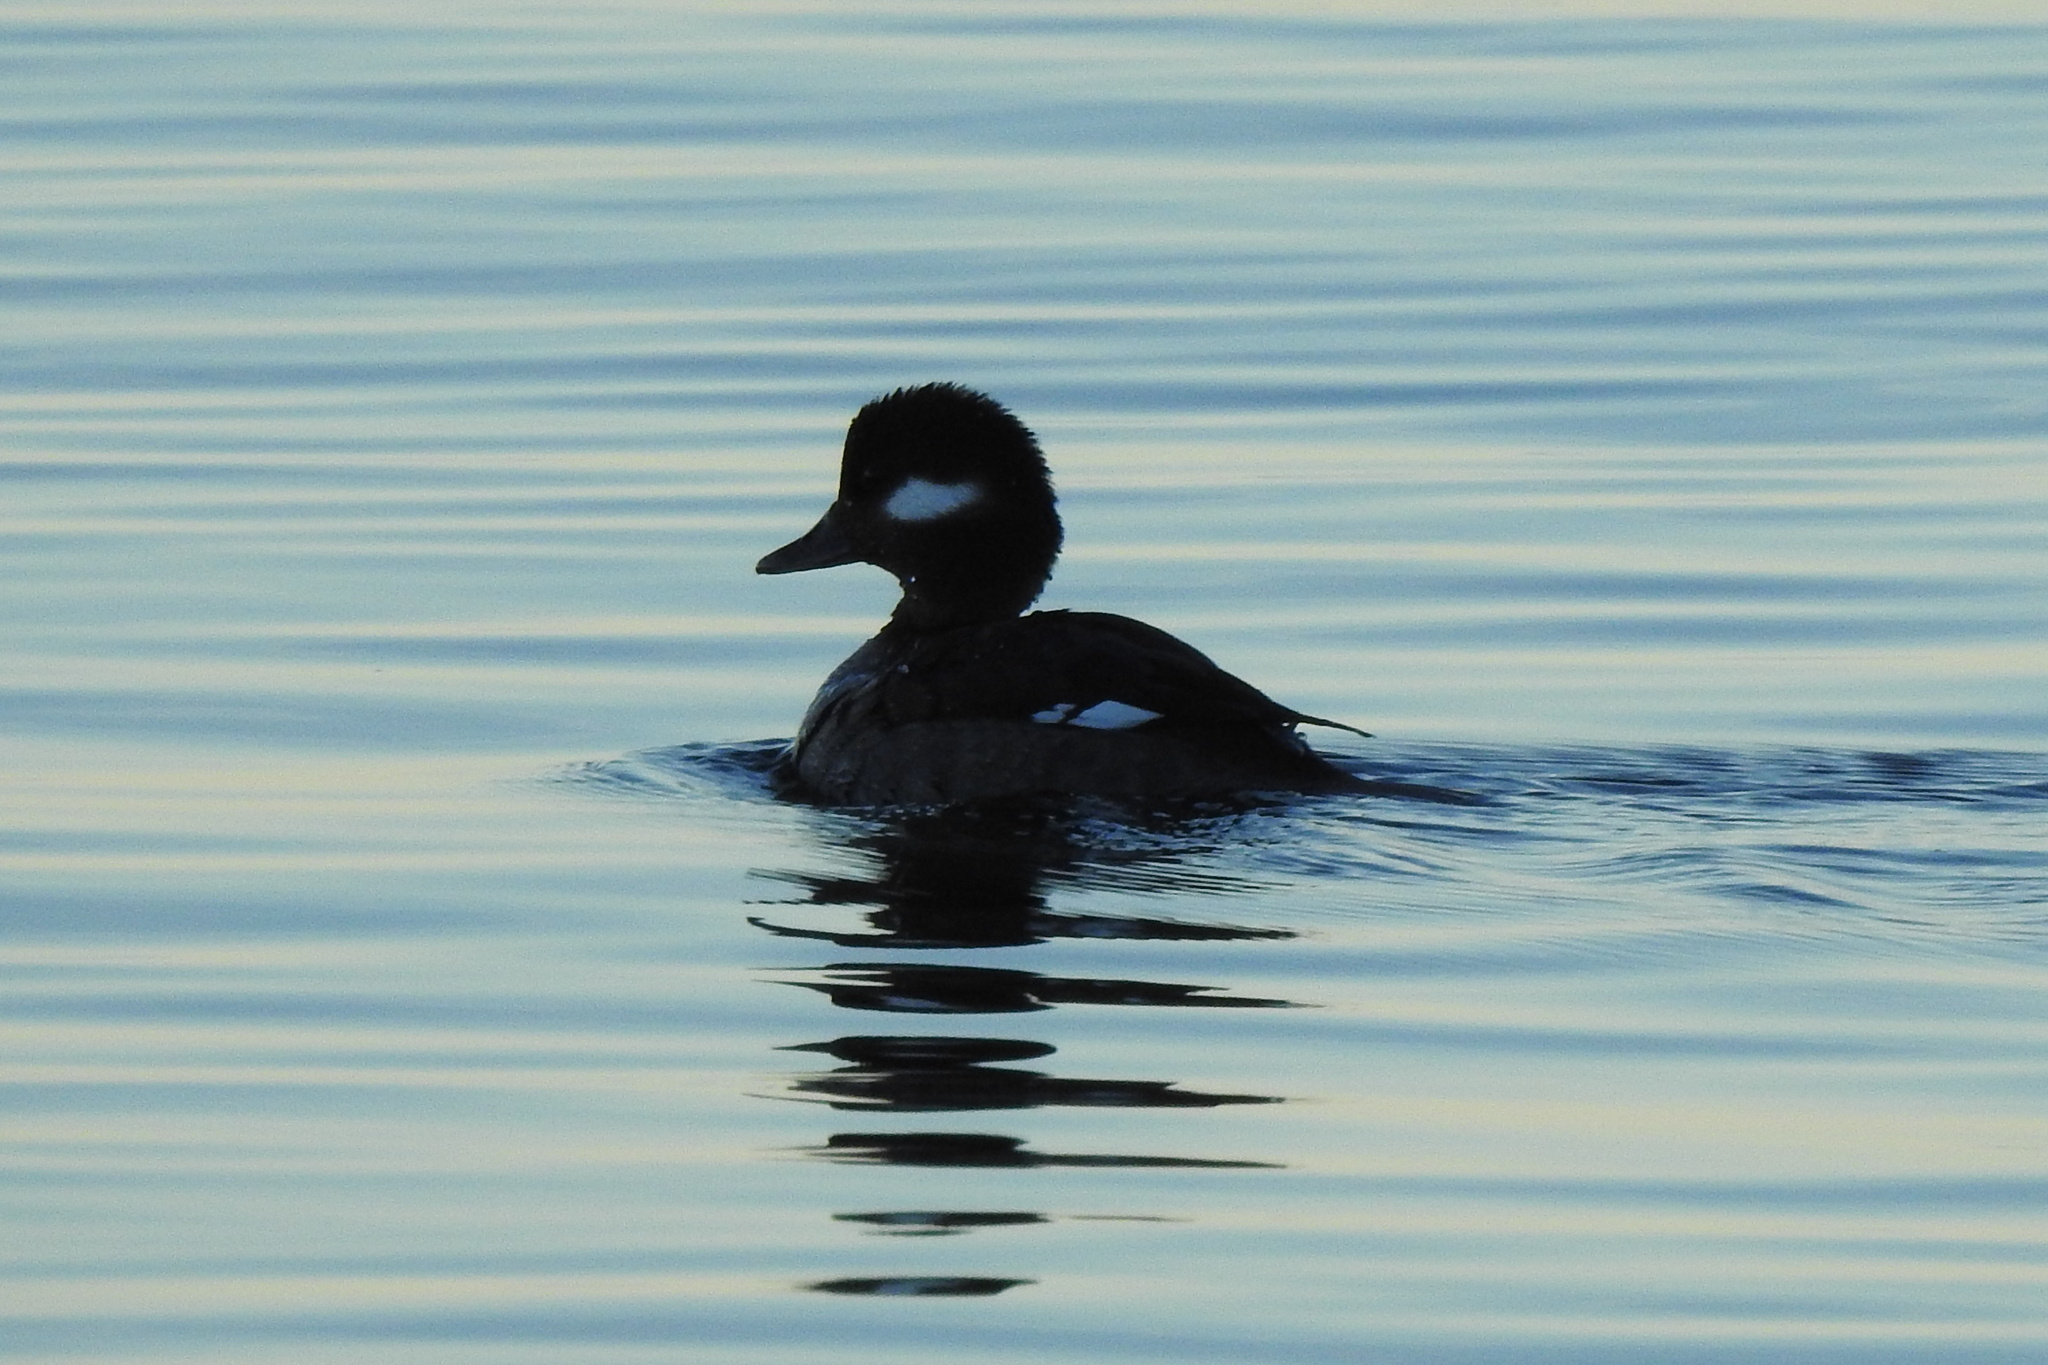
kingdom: Animalia
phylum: Chordata
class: Aves
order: Anseriformes
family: Anatidae
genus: Bucephala
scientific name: Bucephala albeola
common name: Bufflehead
